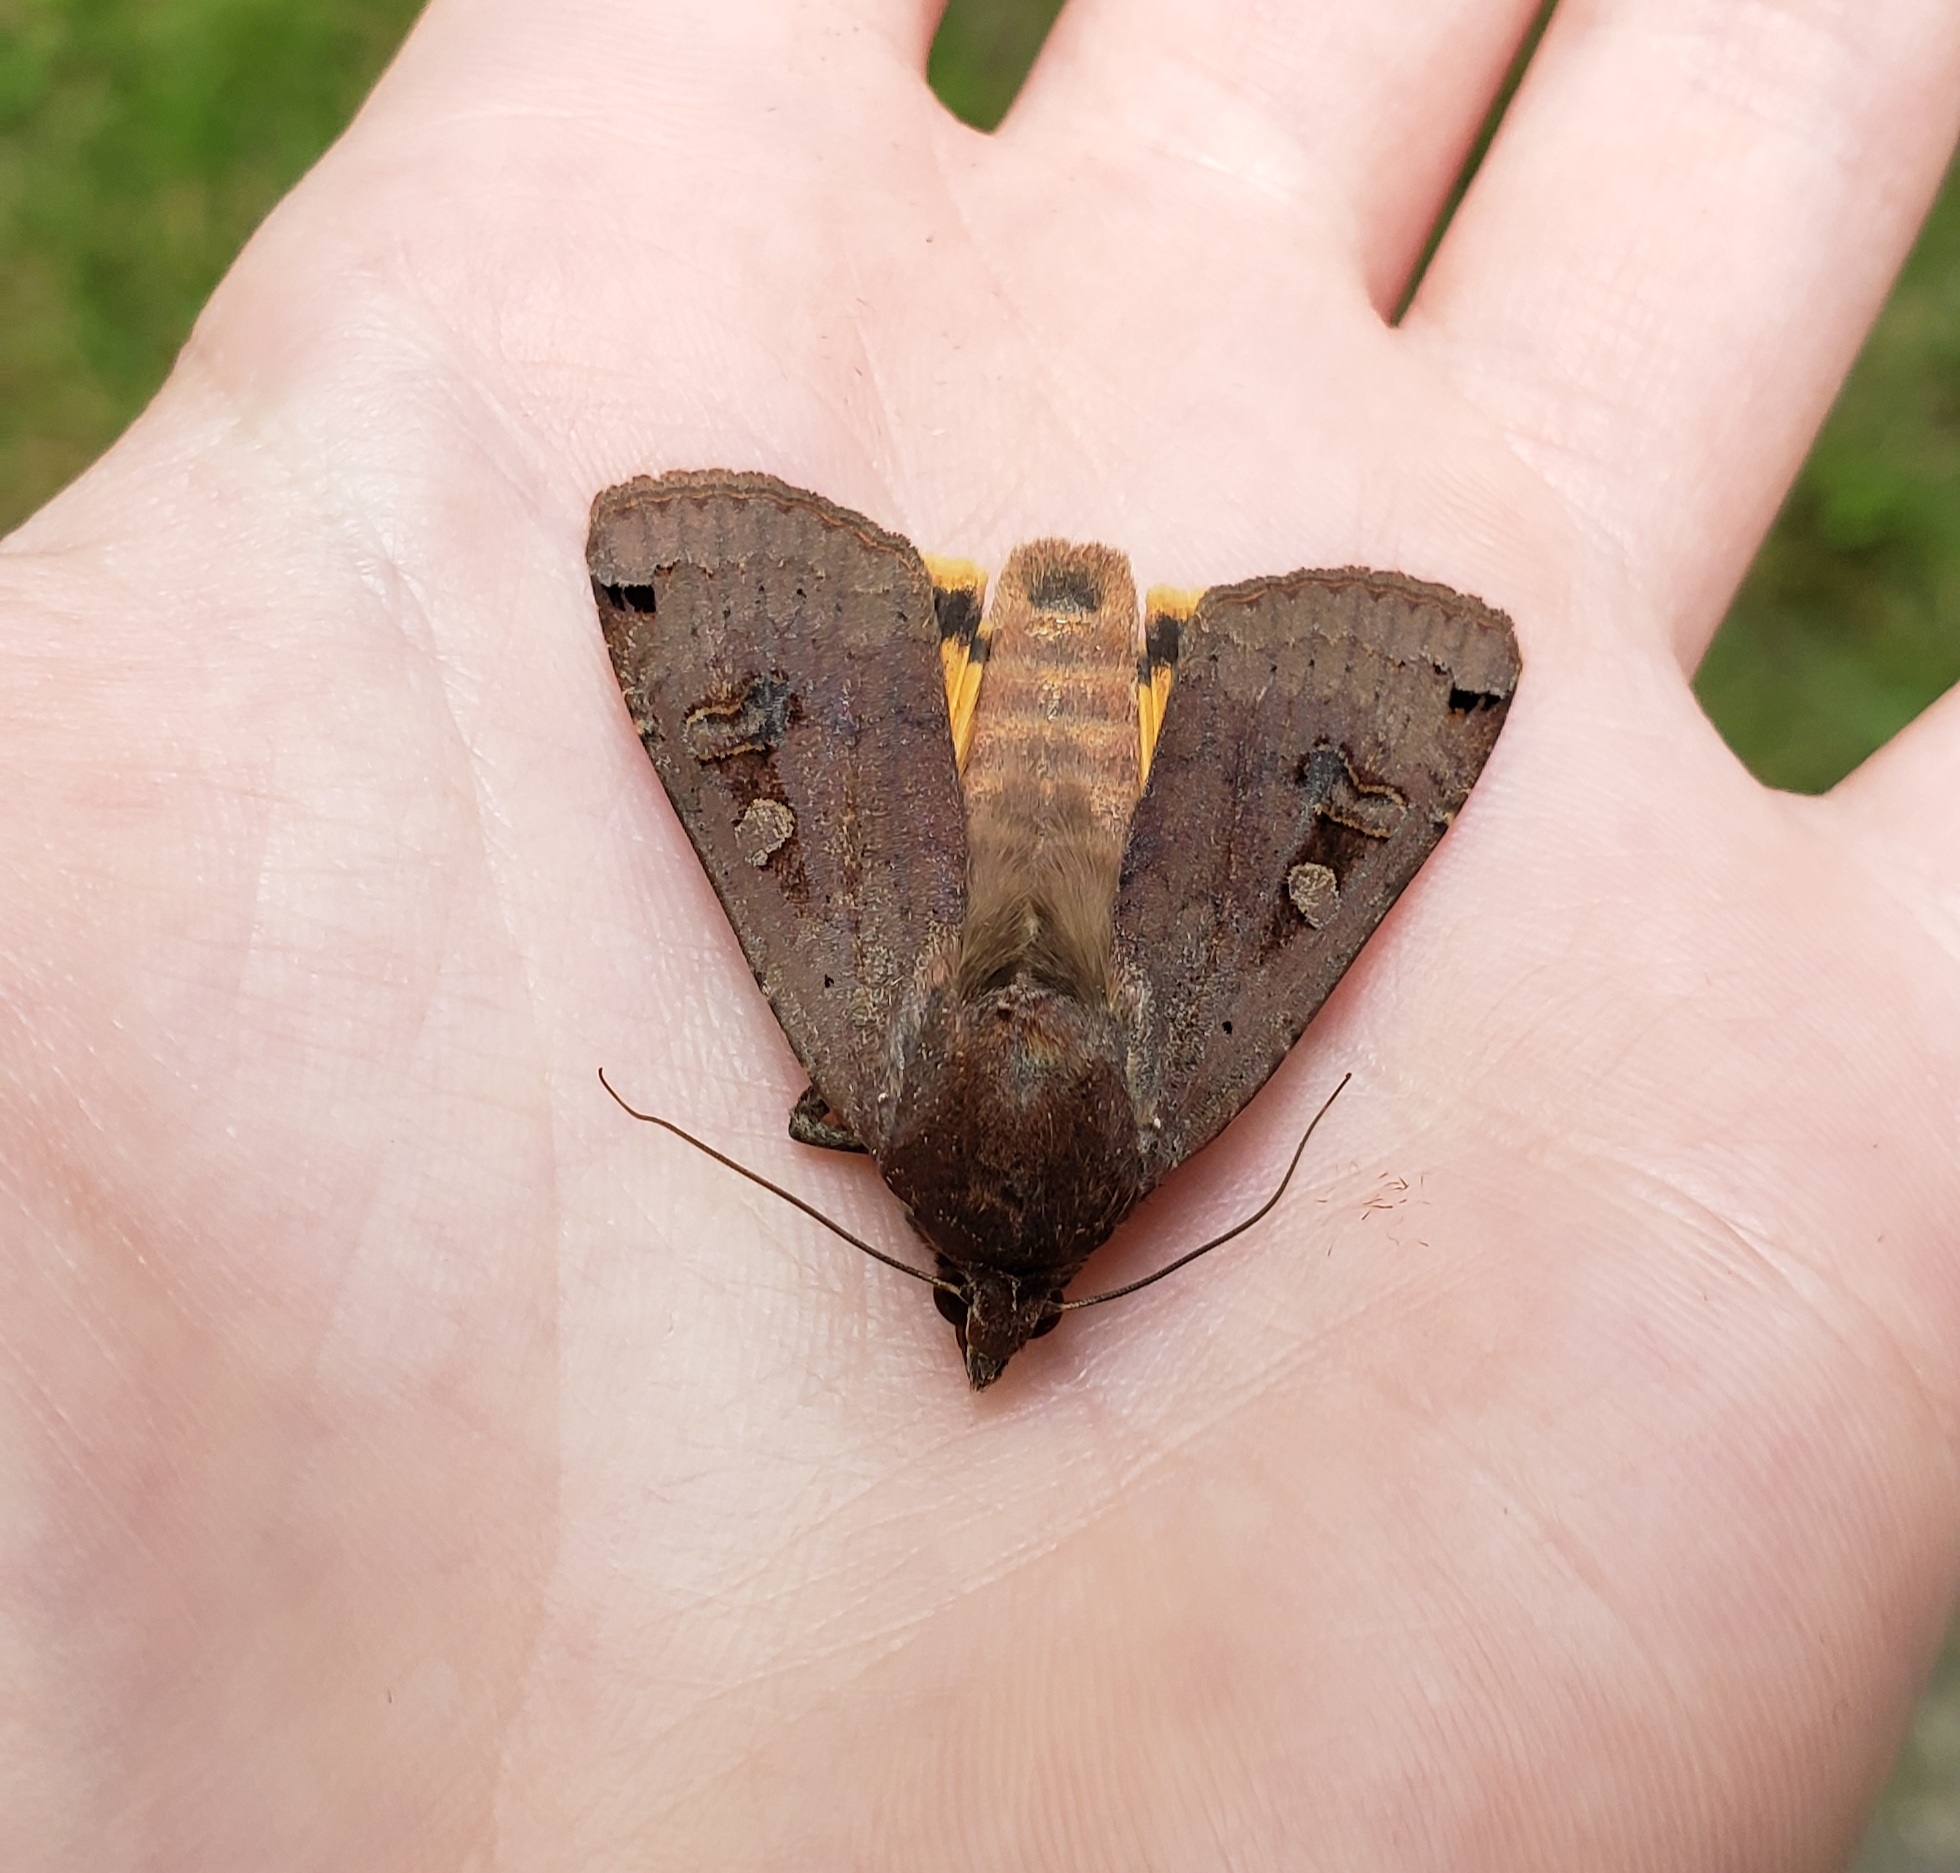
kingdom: Animalia
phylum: Arthropoda
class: Insecta
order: Lepidoptera
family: Noctuidae
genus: Noctua
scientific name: Noctua pronuba
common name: Large yellow underwing
